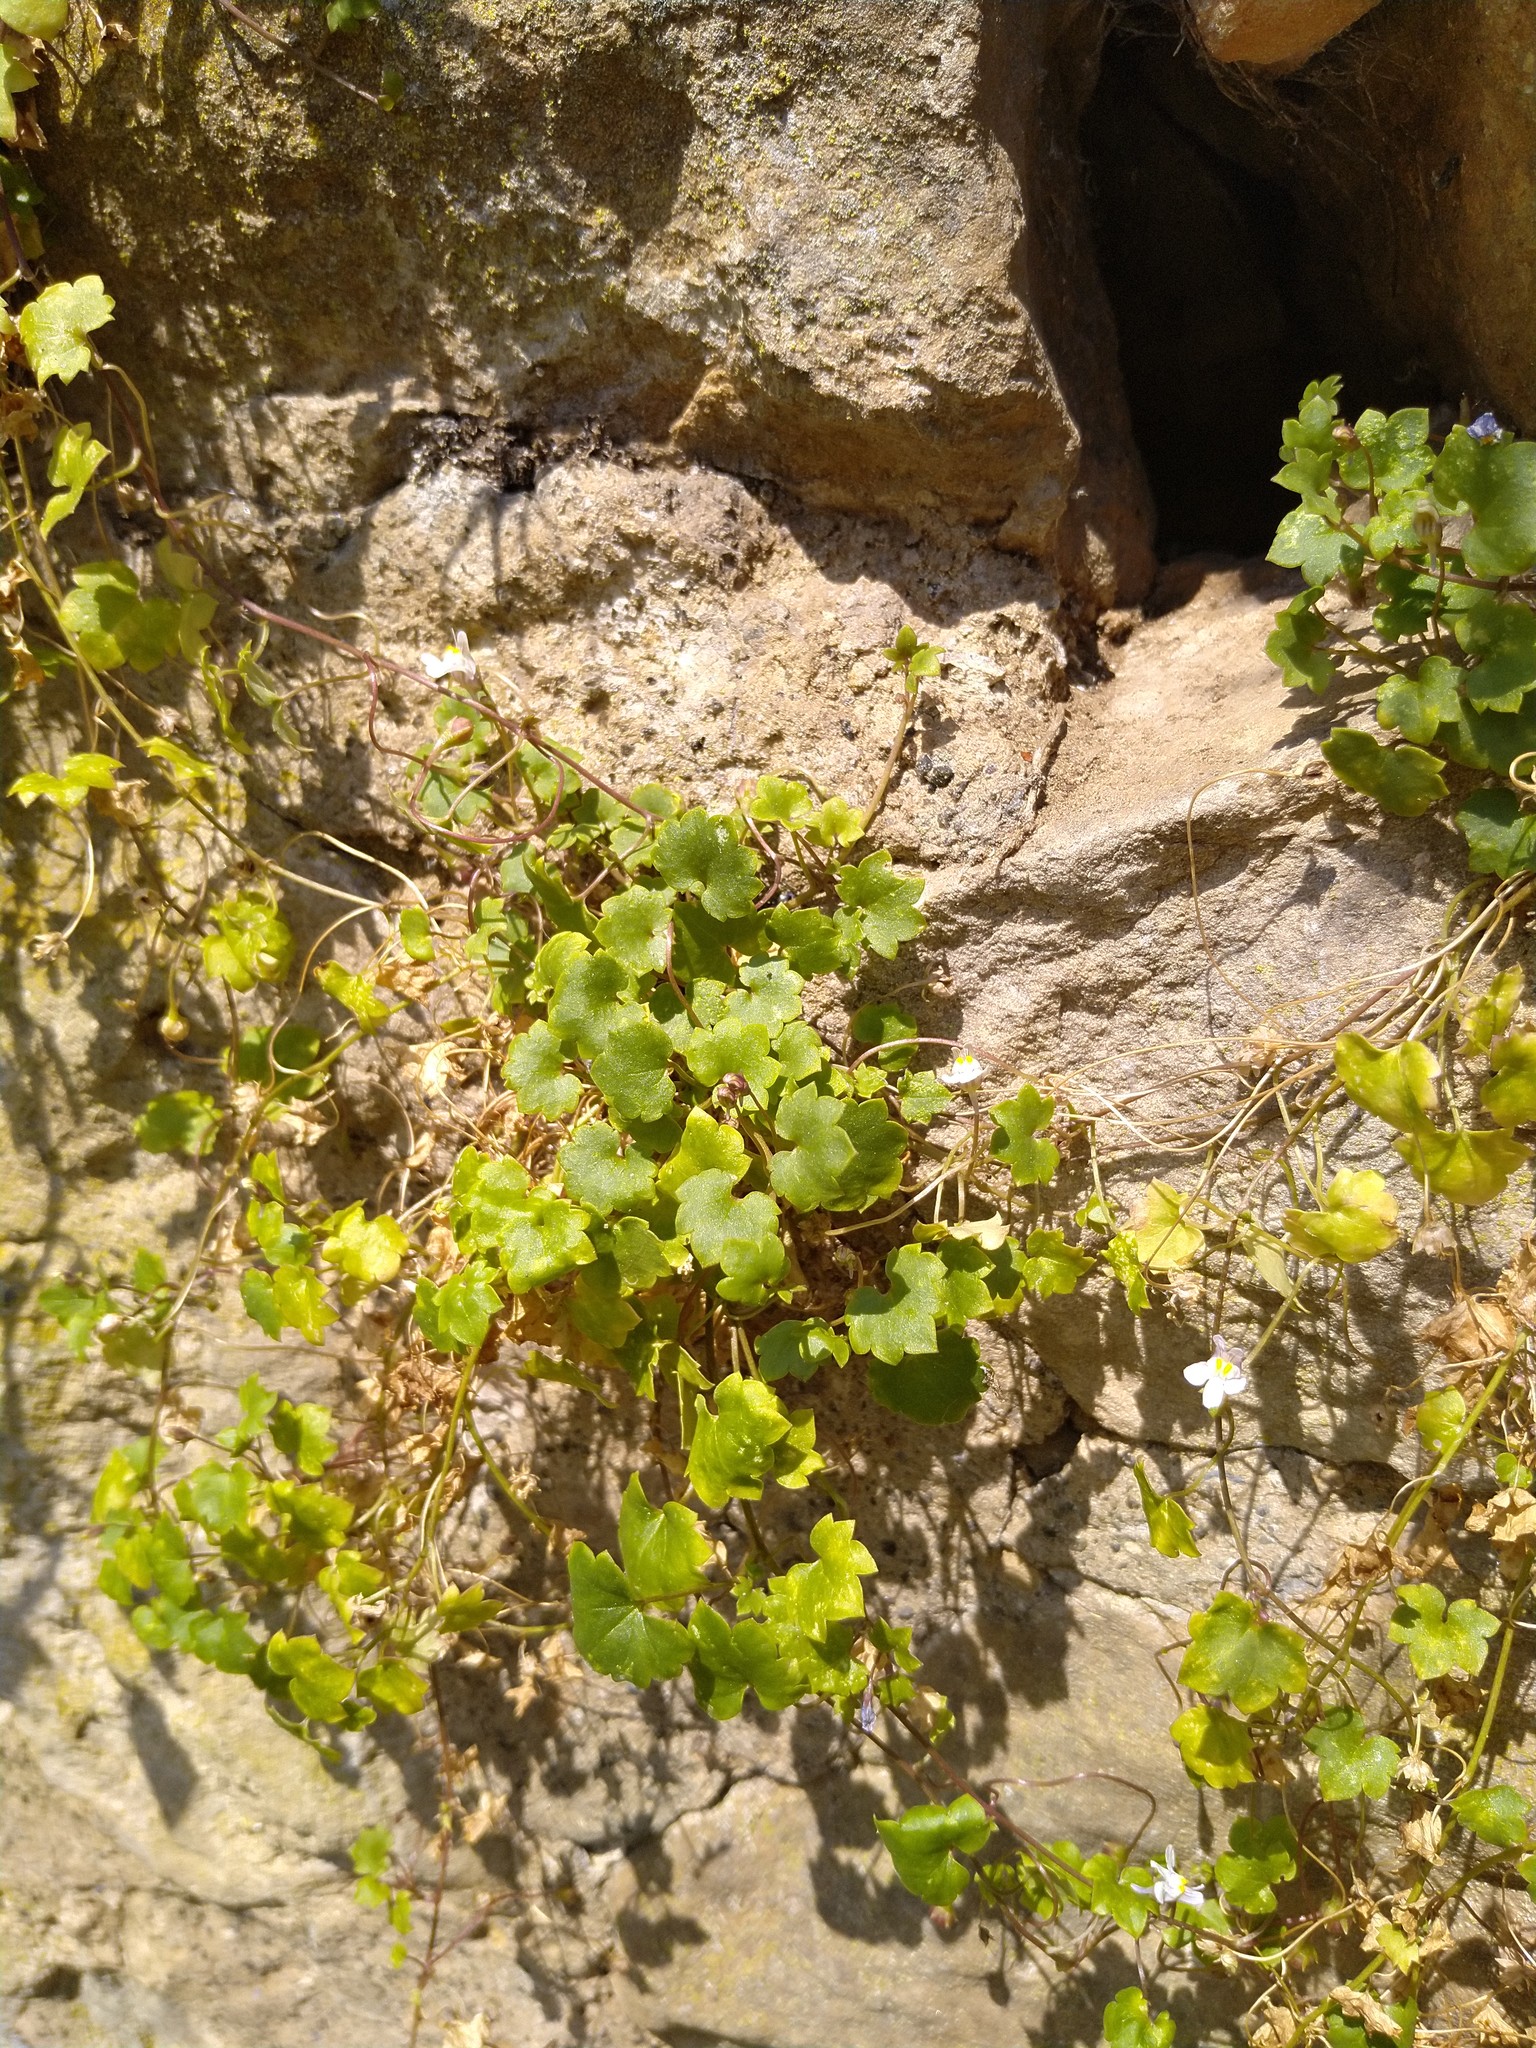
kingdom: Plantae
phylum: Tracheophyta
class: Magnoliopsida
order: Lamiales
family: Plantaginaceae
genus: Cymbalaria
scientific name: Cymbalaria muralis
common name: Ivy-leaved toadflax
